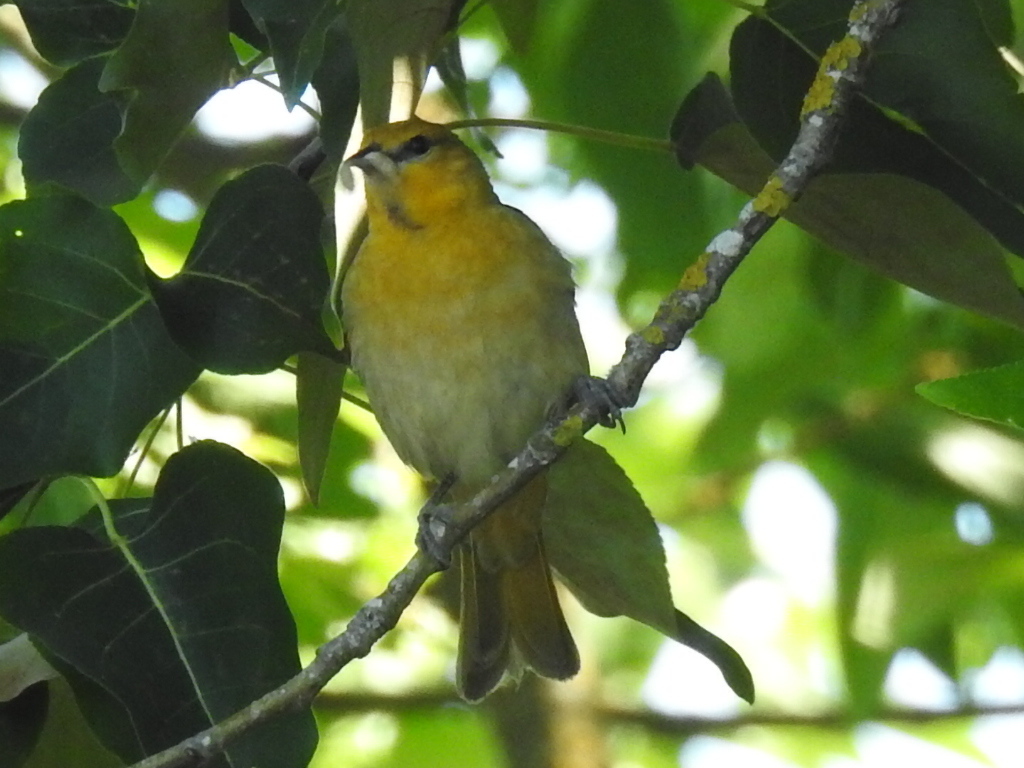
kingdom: Animalia
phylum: Chordata
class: Aves
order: Passeriformes
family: Icteridae
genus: Icterus
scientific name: Icterus bullockii
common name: Bullock's oriole
